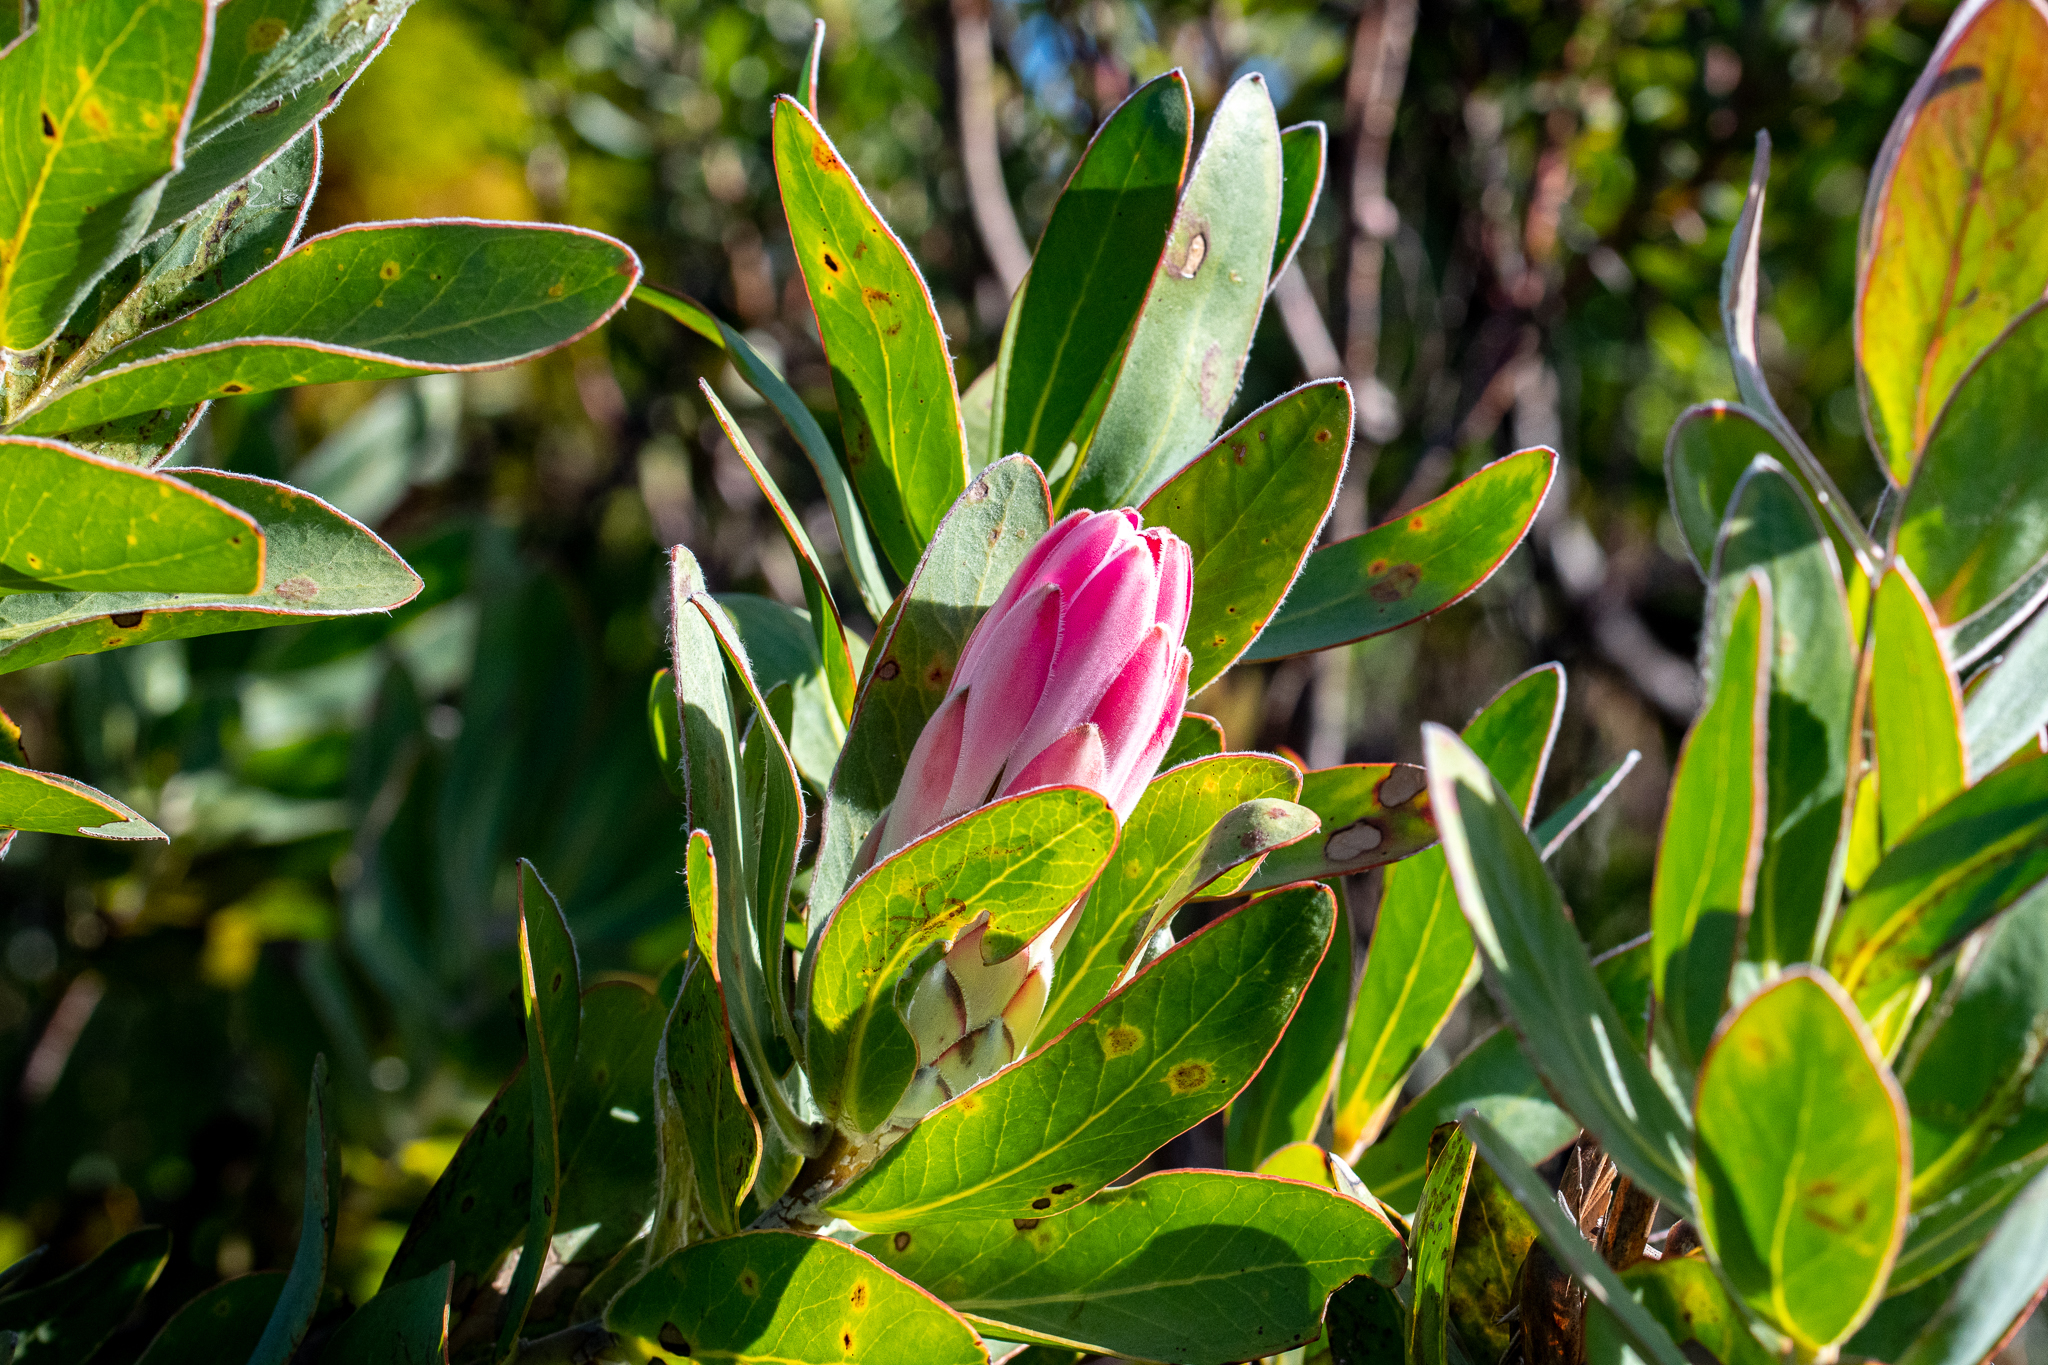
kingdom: Plantae
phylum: Tracheophyta
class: Magnoliopsida
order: Proteales
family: Proteaceae
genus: Protea
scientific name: Protea compacta
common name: Bot river protea
